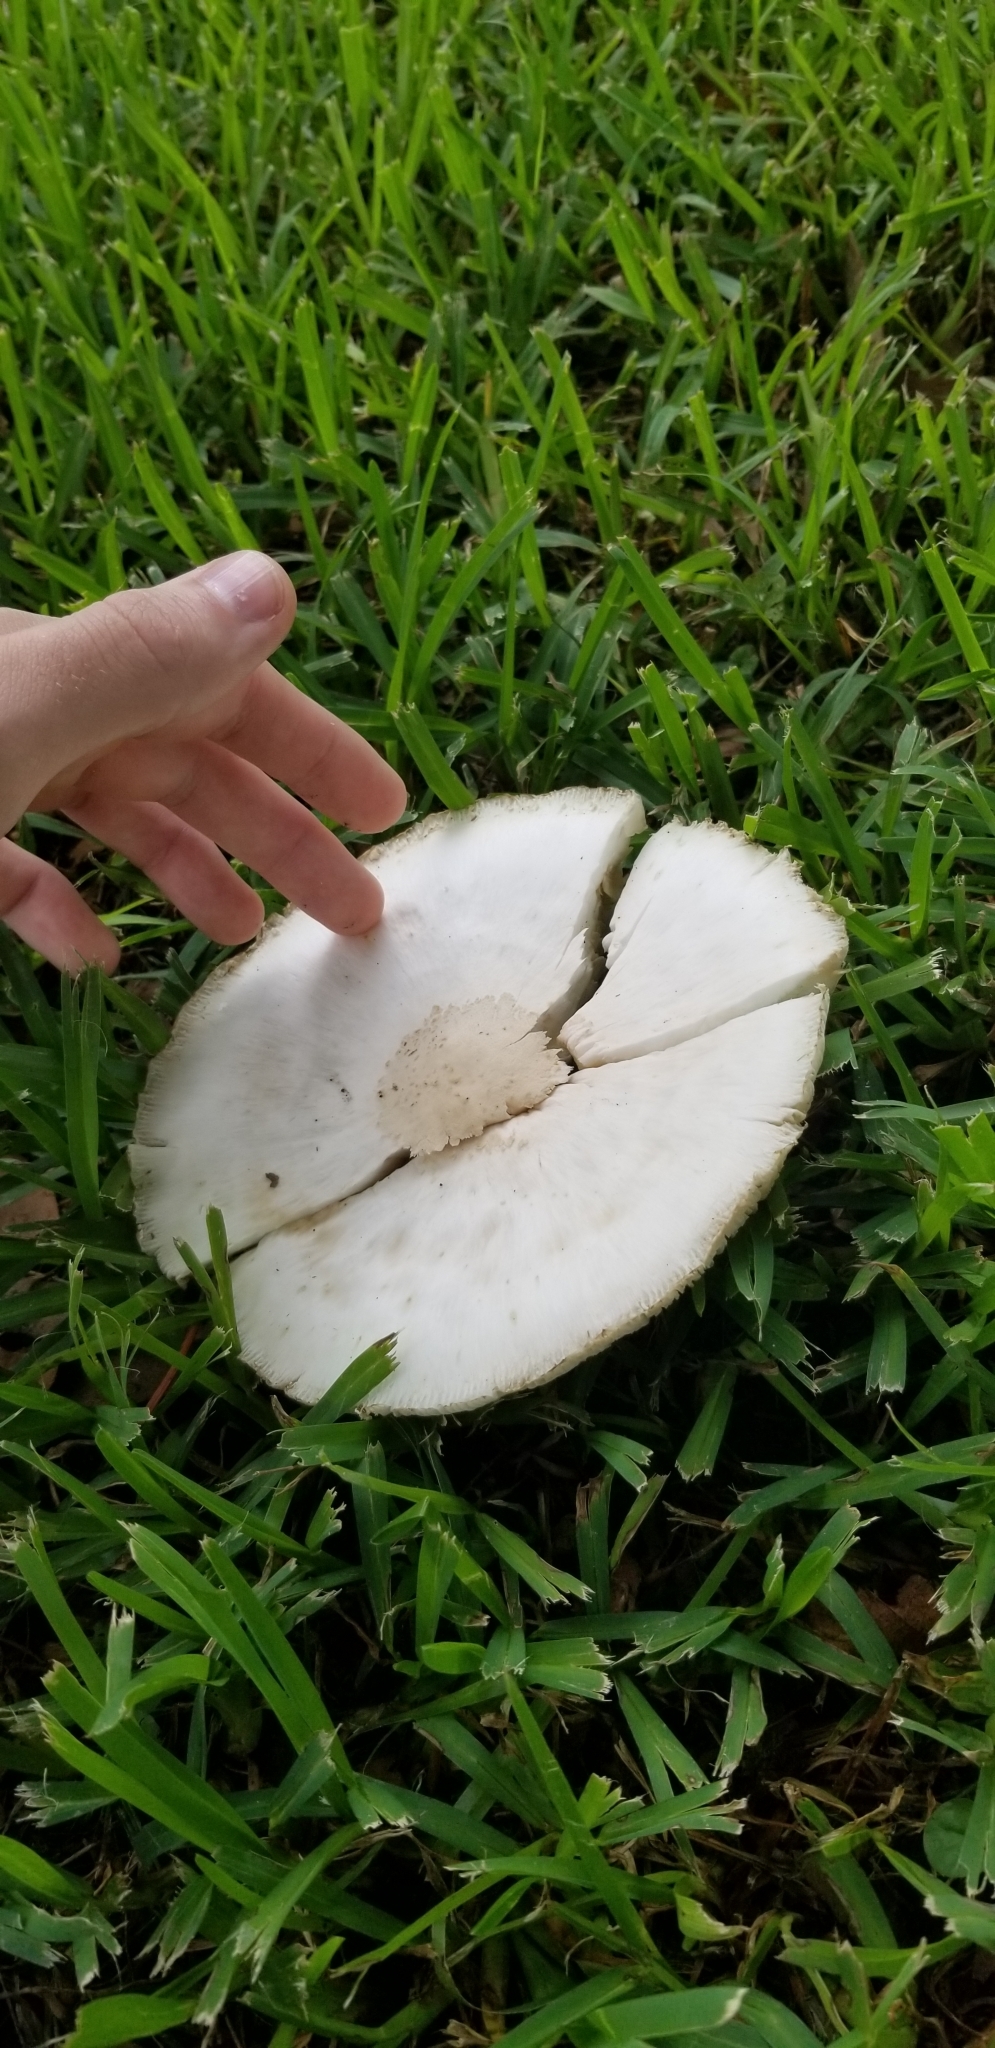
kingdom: Fungi
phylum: Basidiomycota
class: Agaricomycetes
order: Agaricales
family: Agaricaceae
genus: Chlorophyllum
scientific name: Chlorophyllum molybdites
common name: False parasol
